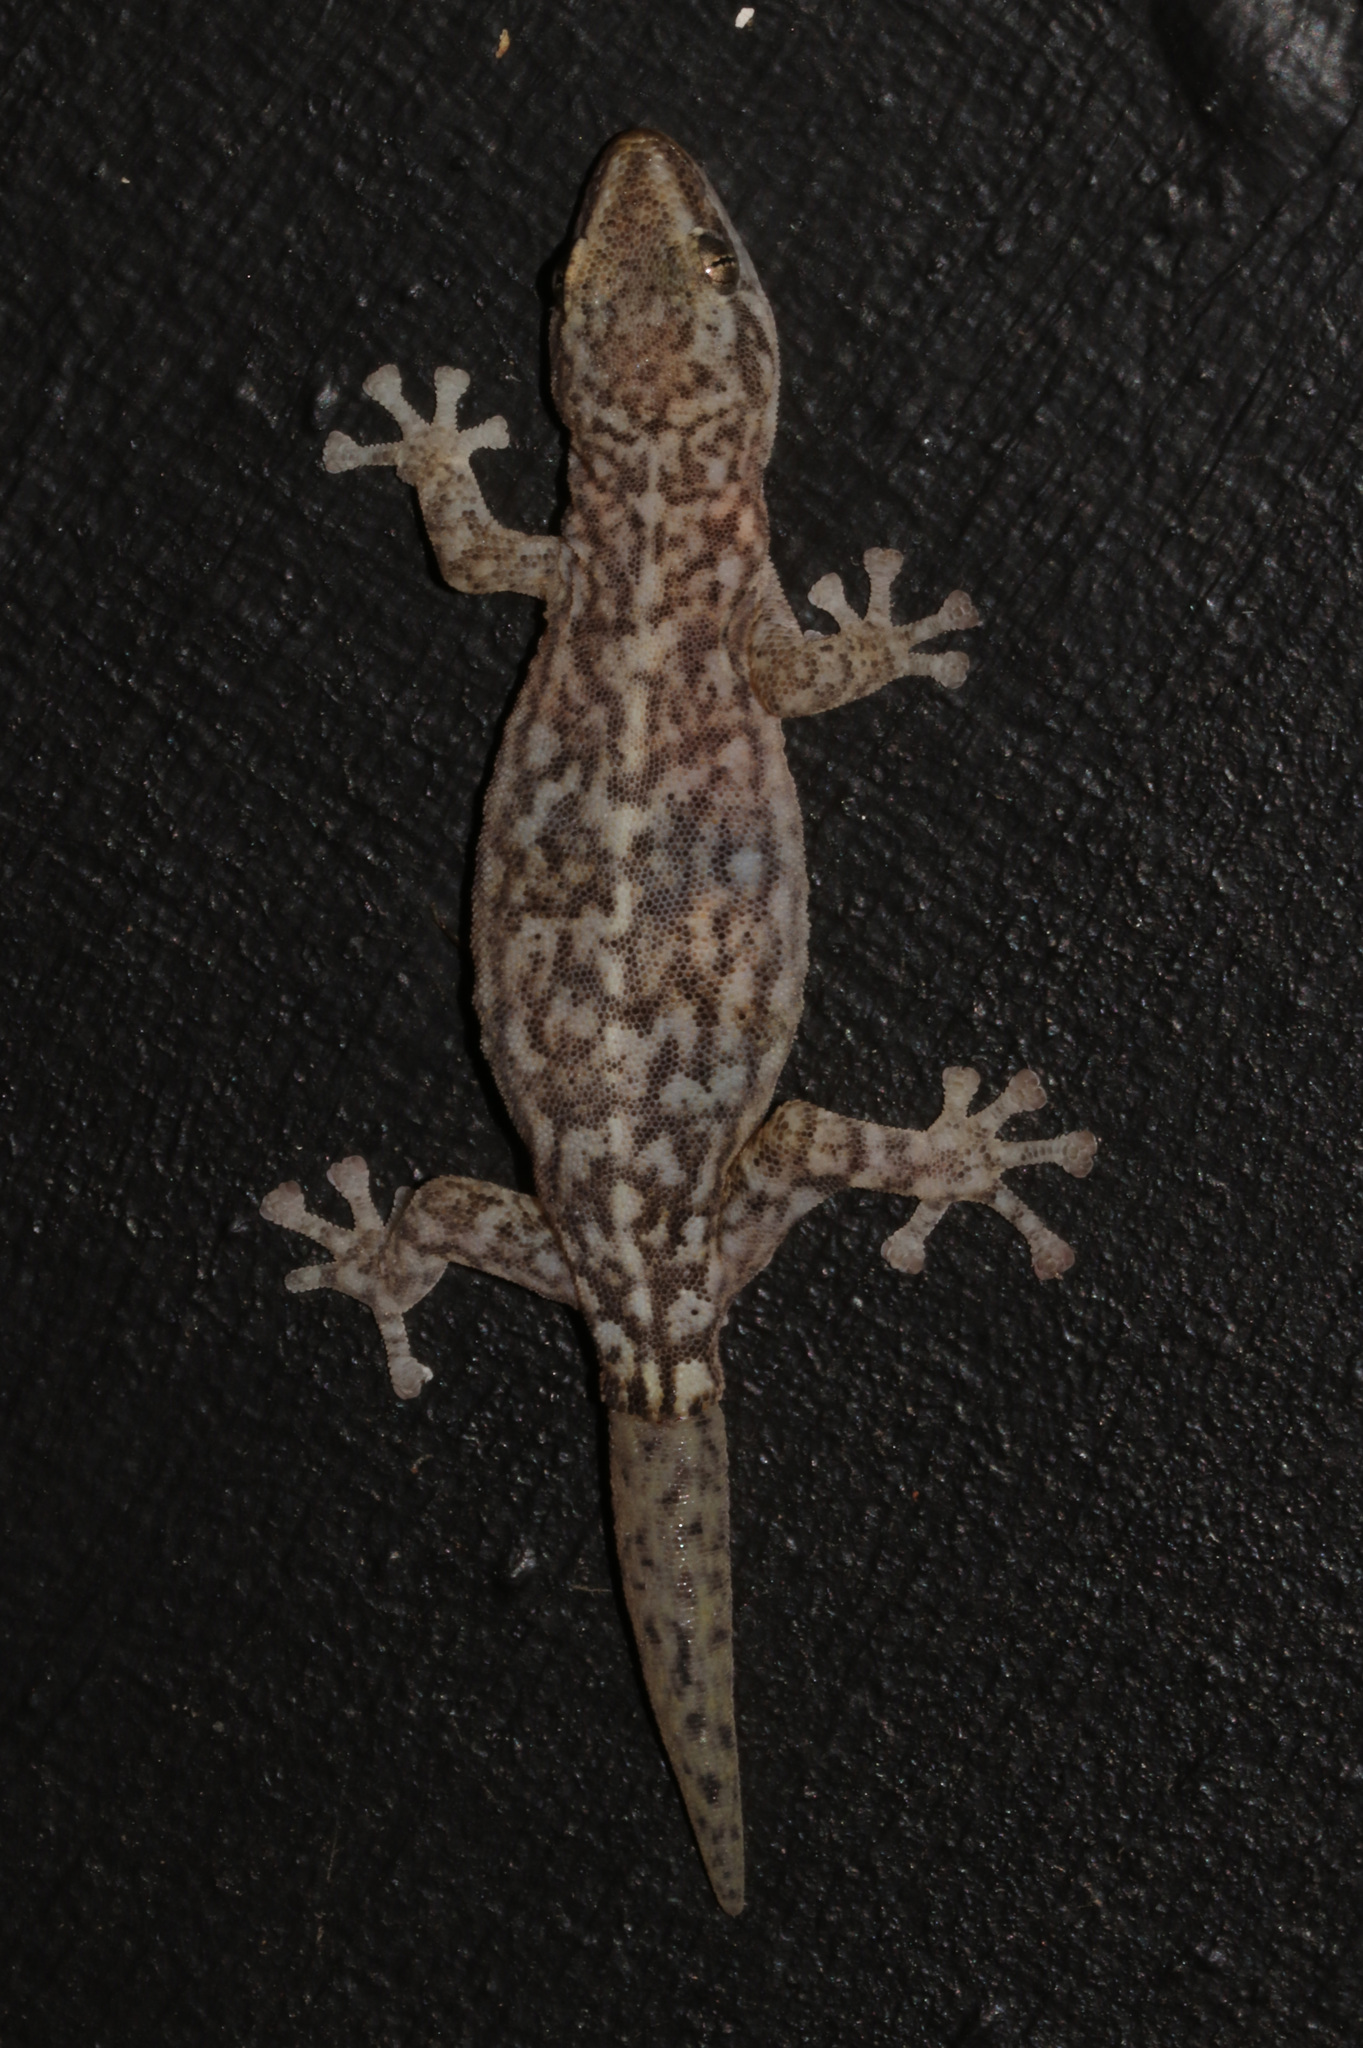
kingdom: Animalia
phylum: Chordata
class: Squamata
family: Gekkonidae
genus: Afrogecko
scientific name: Afrogecko porphyreus
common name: Marbled leaf-toed gecko
